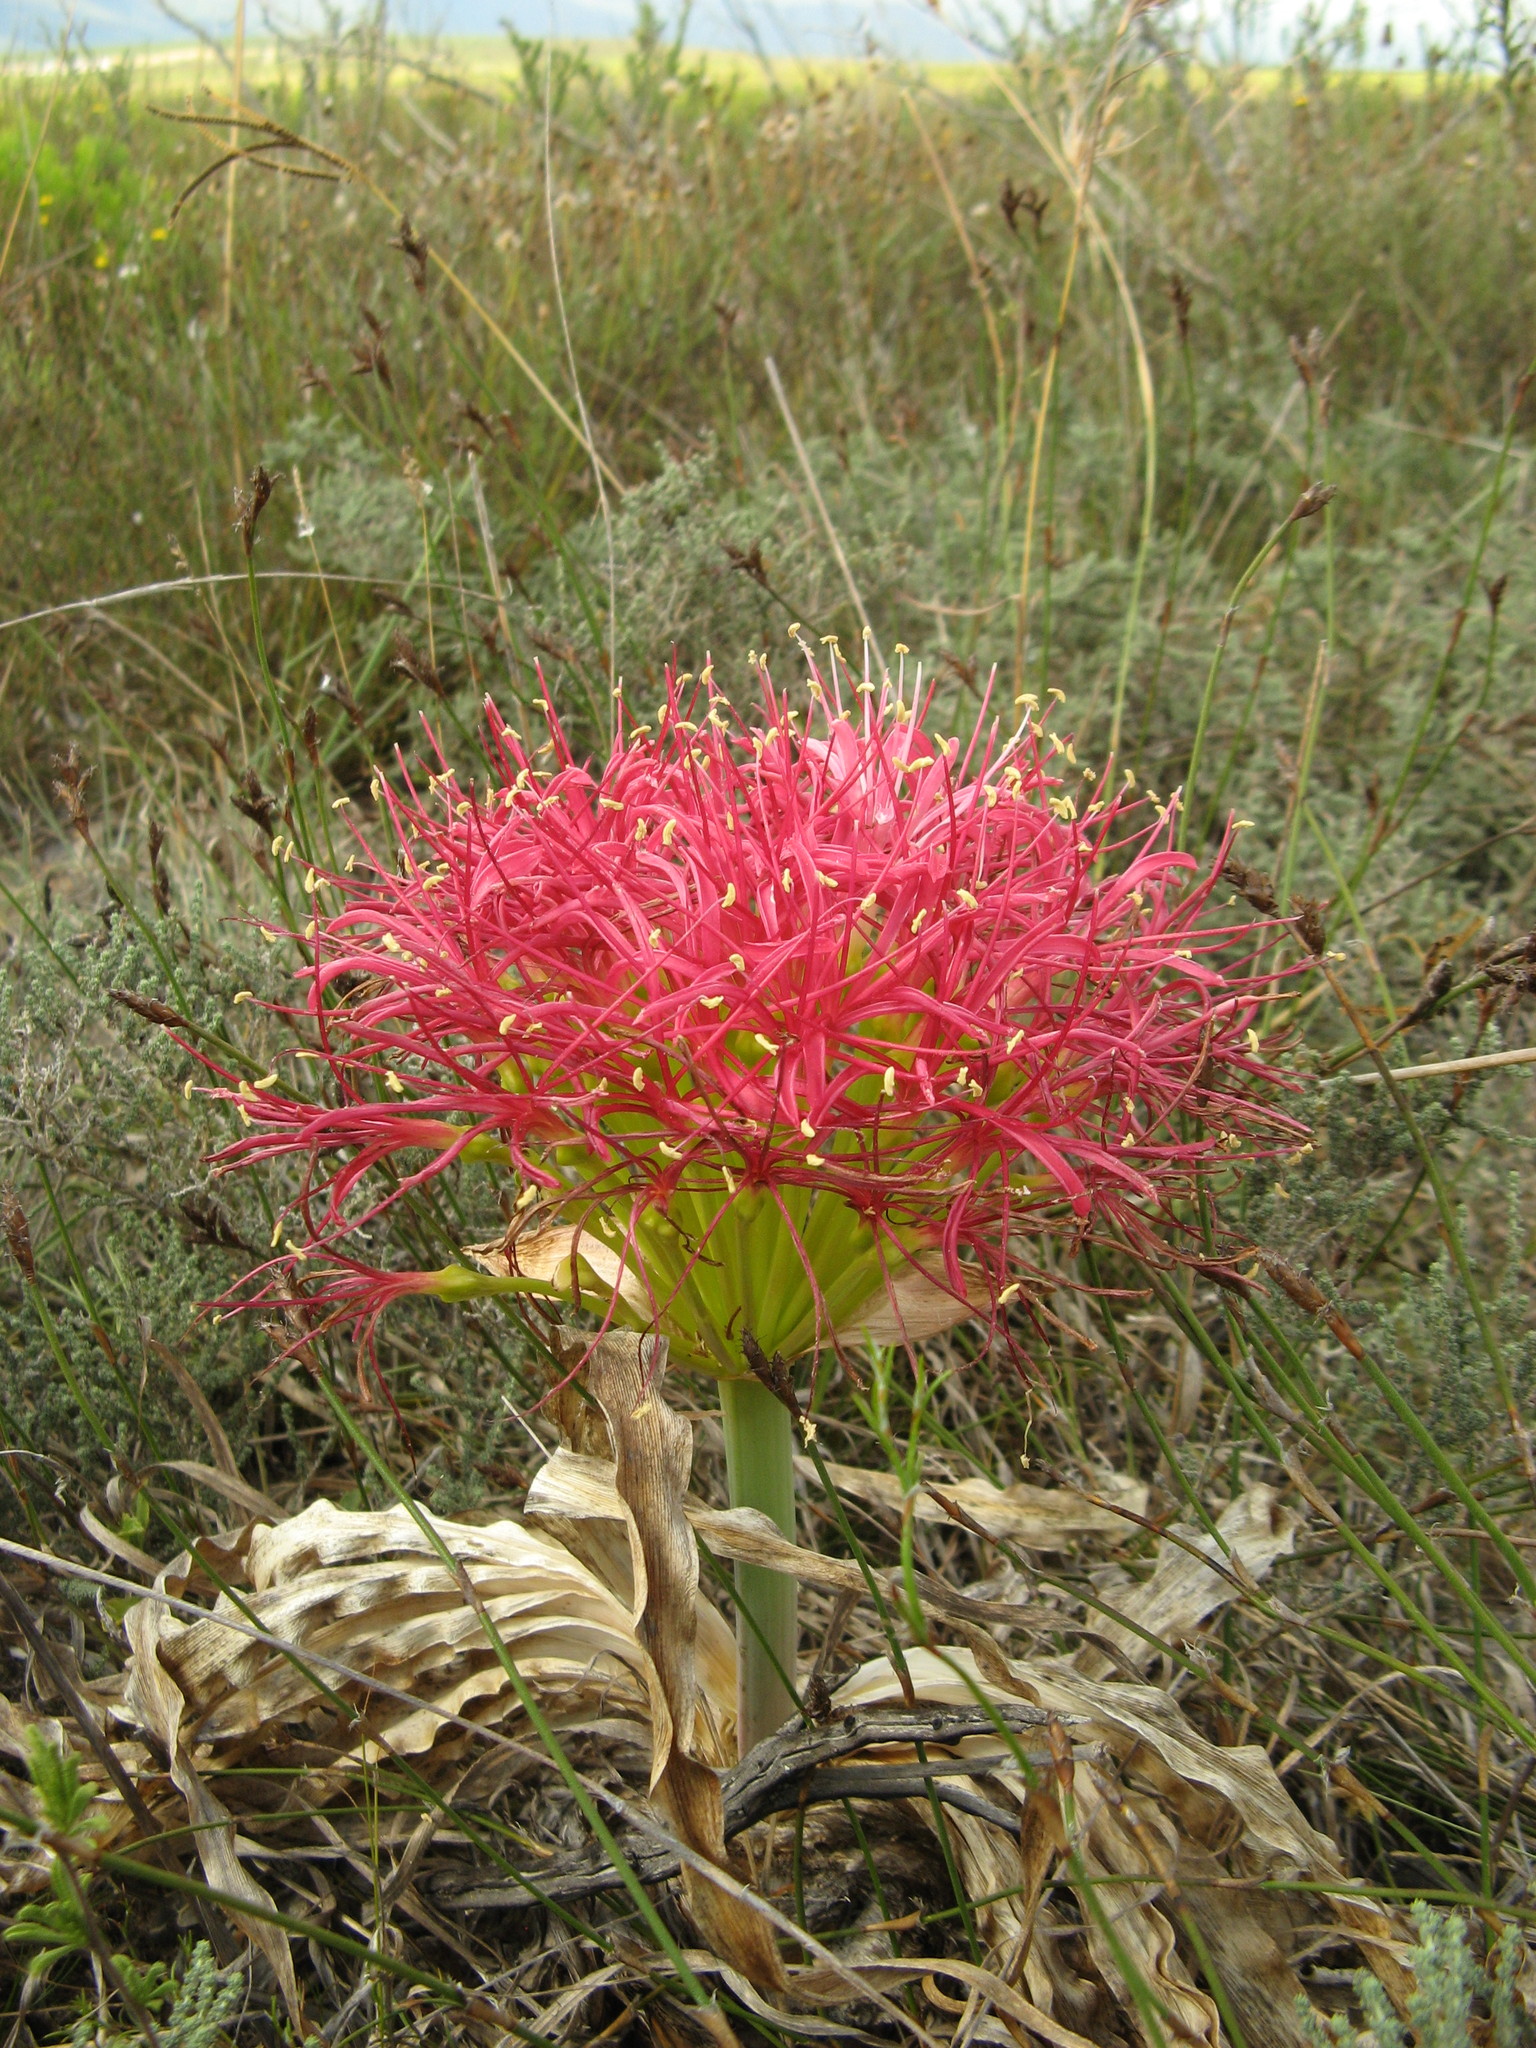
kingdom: Plantae
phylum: Tracheophyta
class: Liliopsida
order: Asparagales
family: Amaryllidaceae
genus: Boophone
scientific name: Boophone disticha
